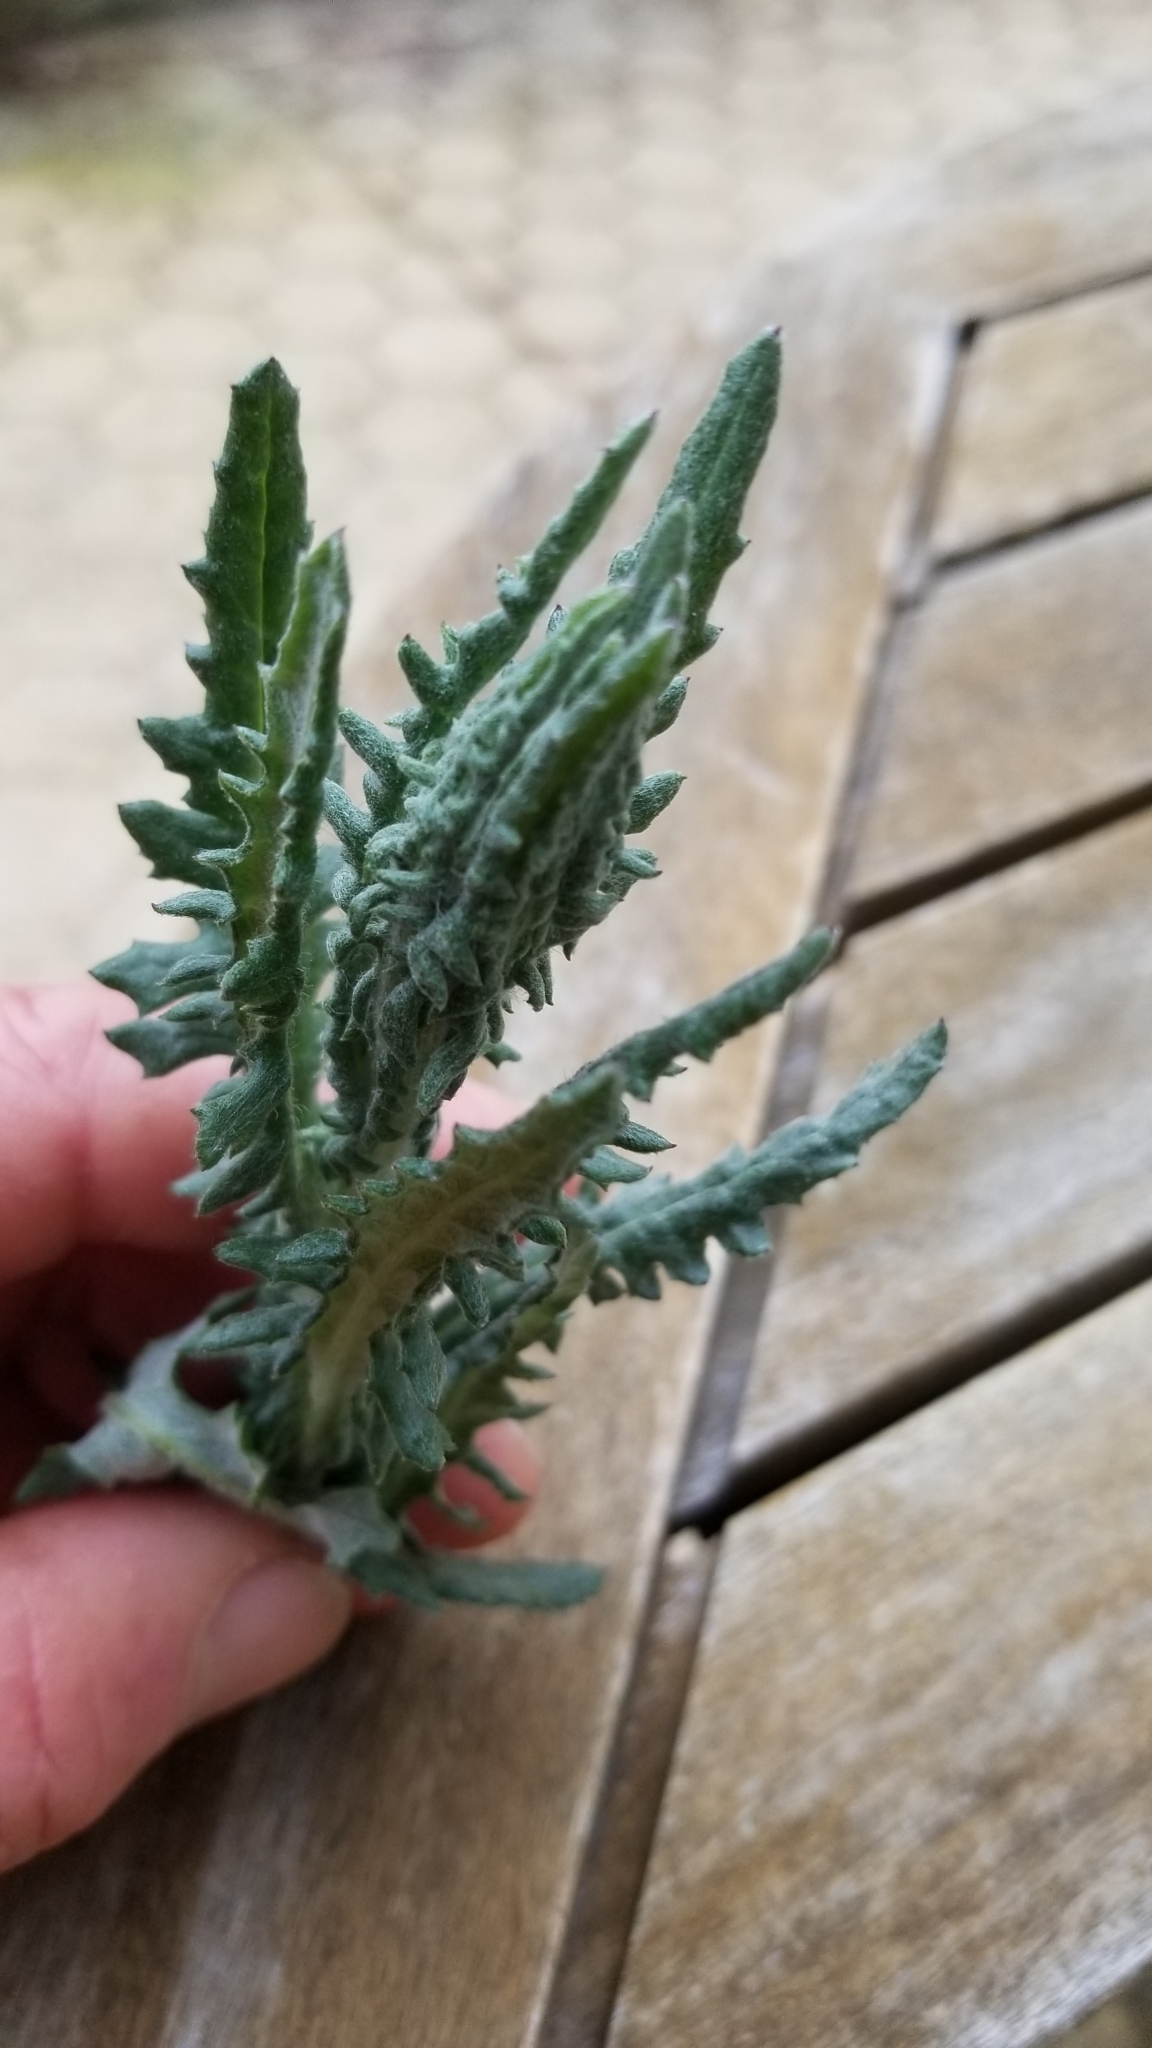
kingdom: Plantae
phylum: Tracheophyta
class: Magnoliopsida
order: Asterales
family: Asteraceae
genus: Senecio
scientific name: Senecio glomeratus
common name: Cutleaf burnweed
